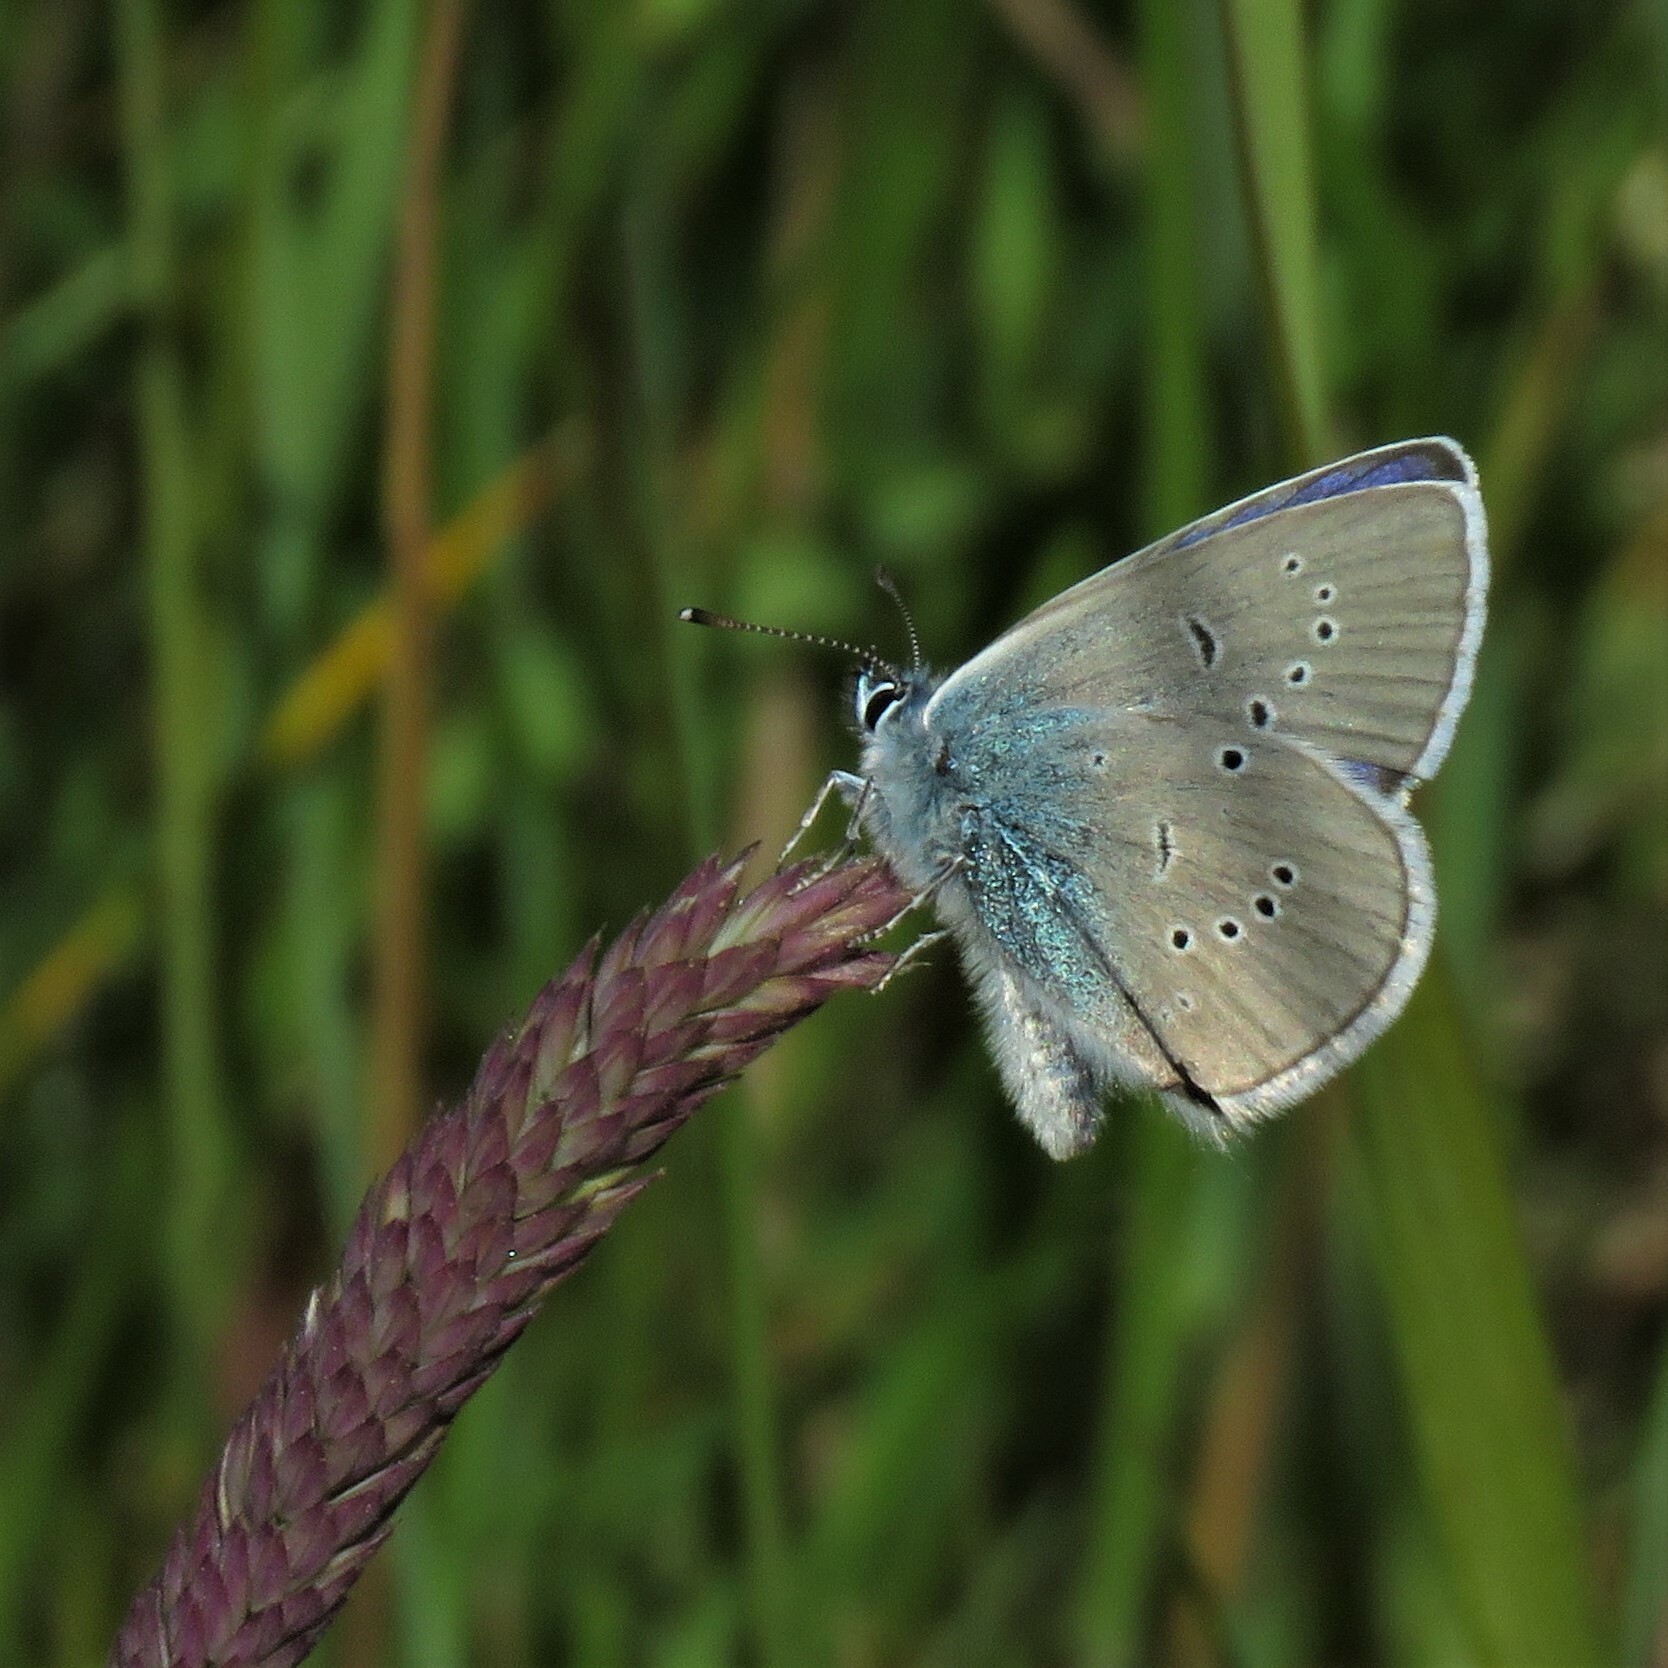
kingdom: Animalia
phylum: Arthropoda
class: Insecta
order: Lepidoptera
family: Lycaenidae
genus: Cyaniris
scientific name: Cyaniris semiargus
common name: Mazarine blue
